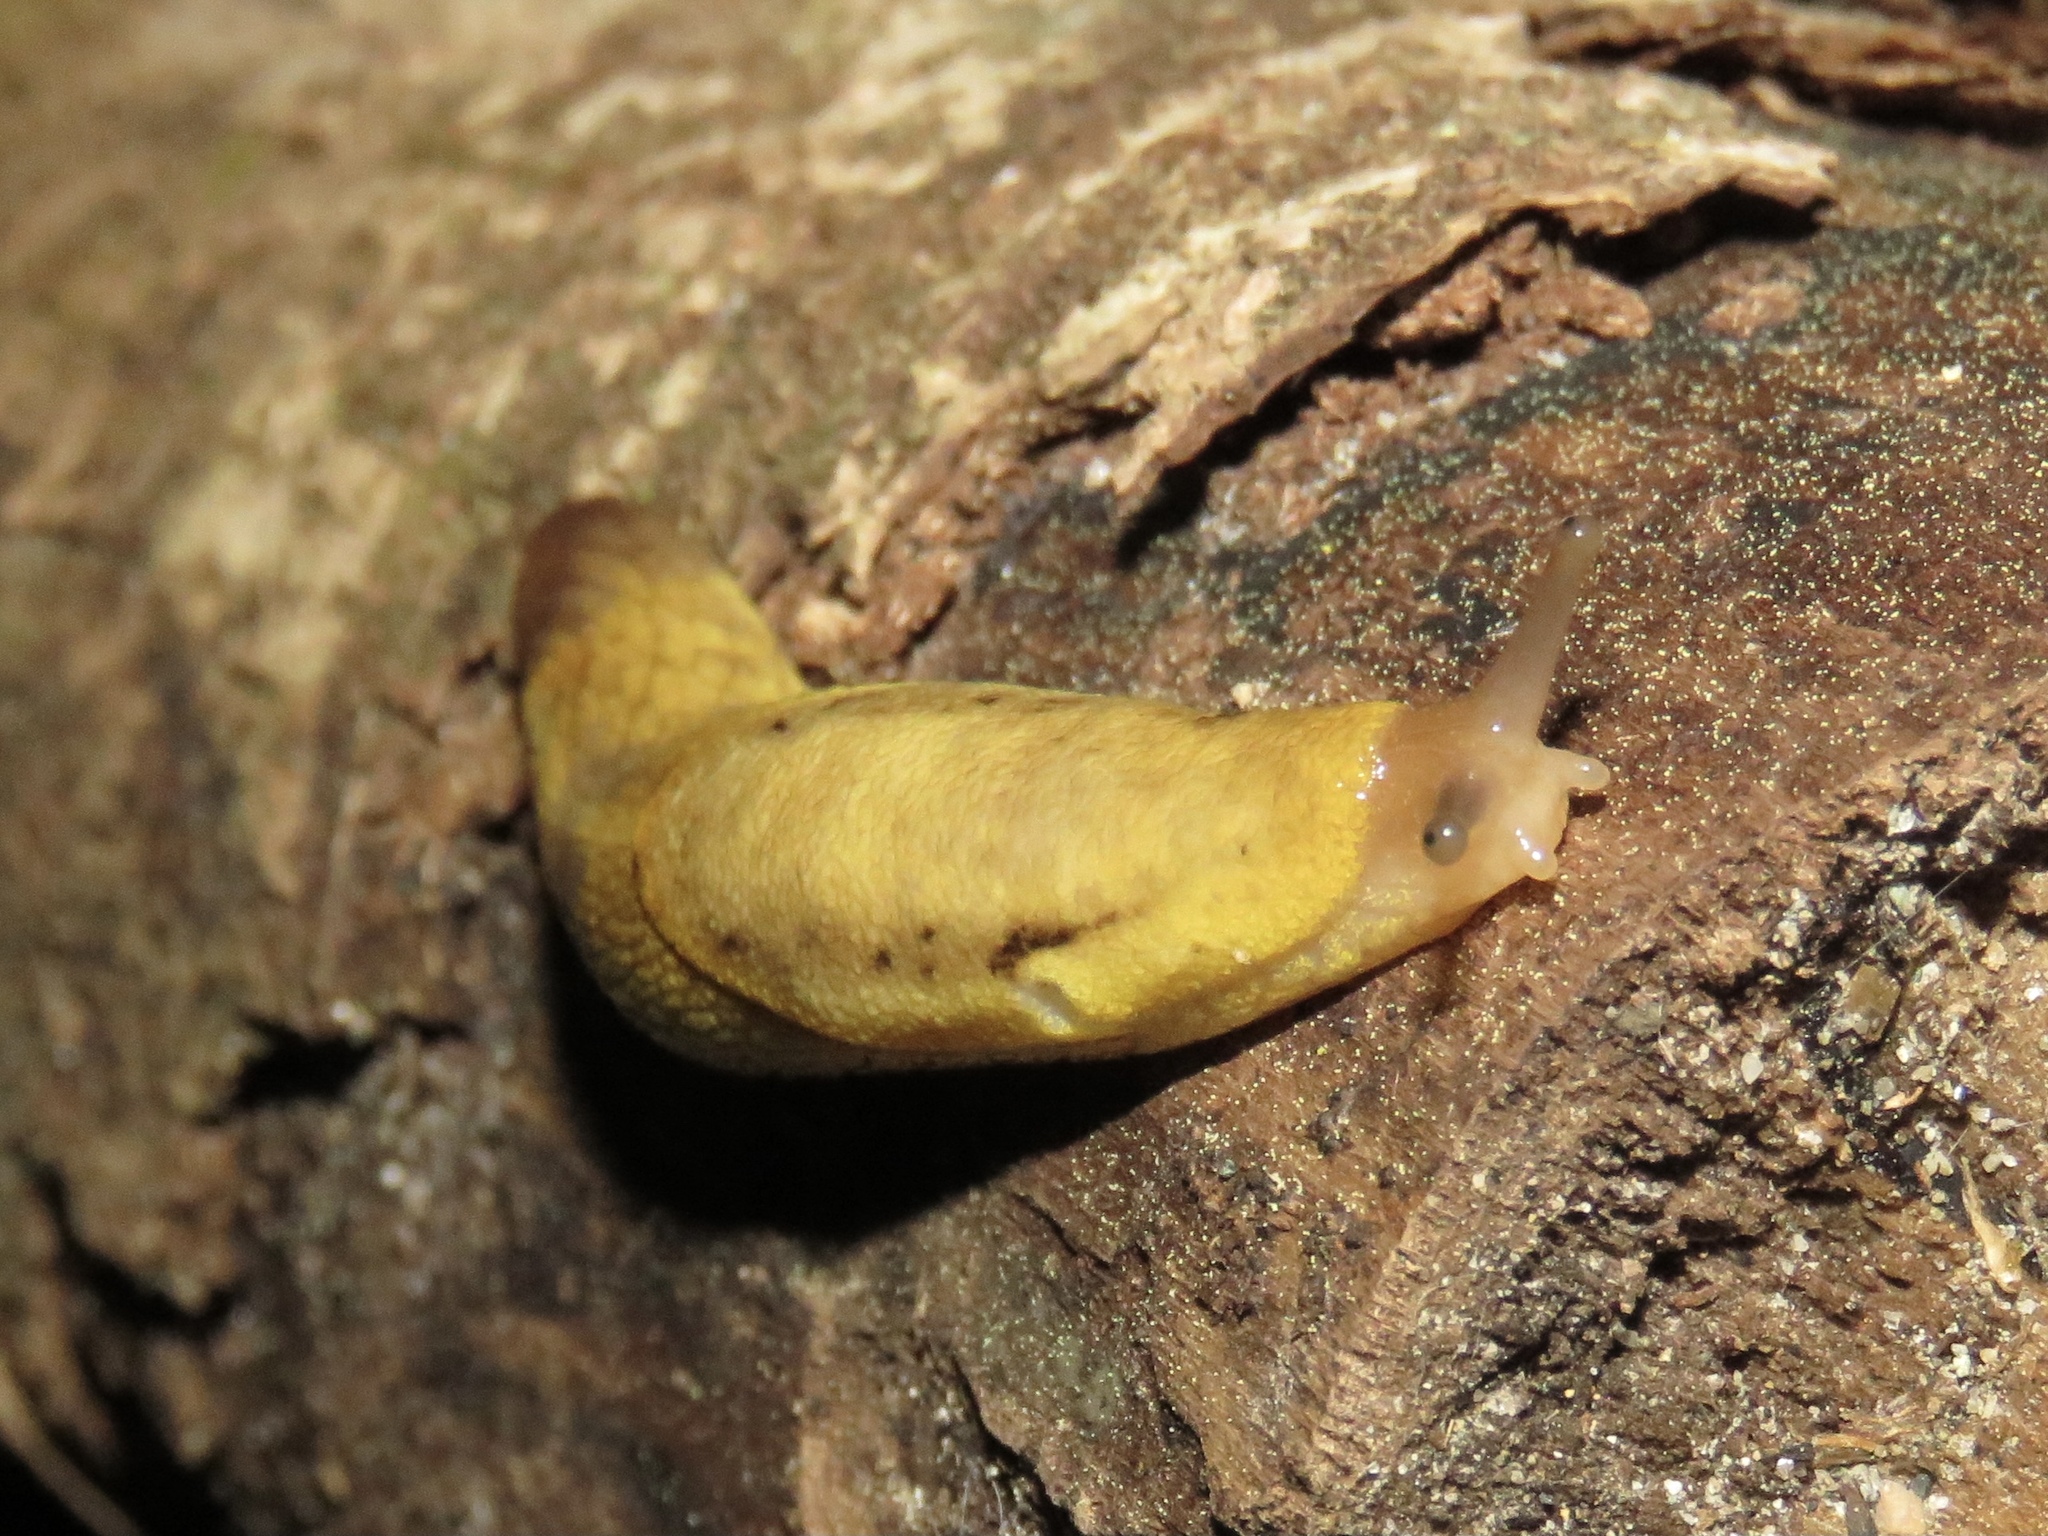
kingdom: Animalia
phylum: Mollusca
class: Gastropoda
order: Stylommatophora
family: Ariolimacidae
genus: Prophysaon
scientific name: Prophysaon foliolatum
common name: Yellow-bordered taildropper
